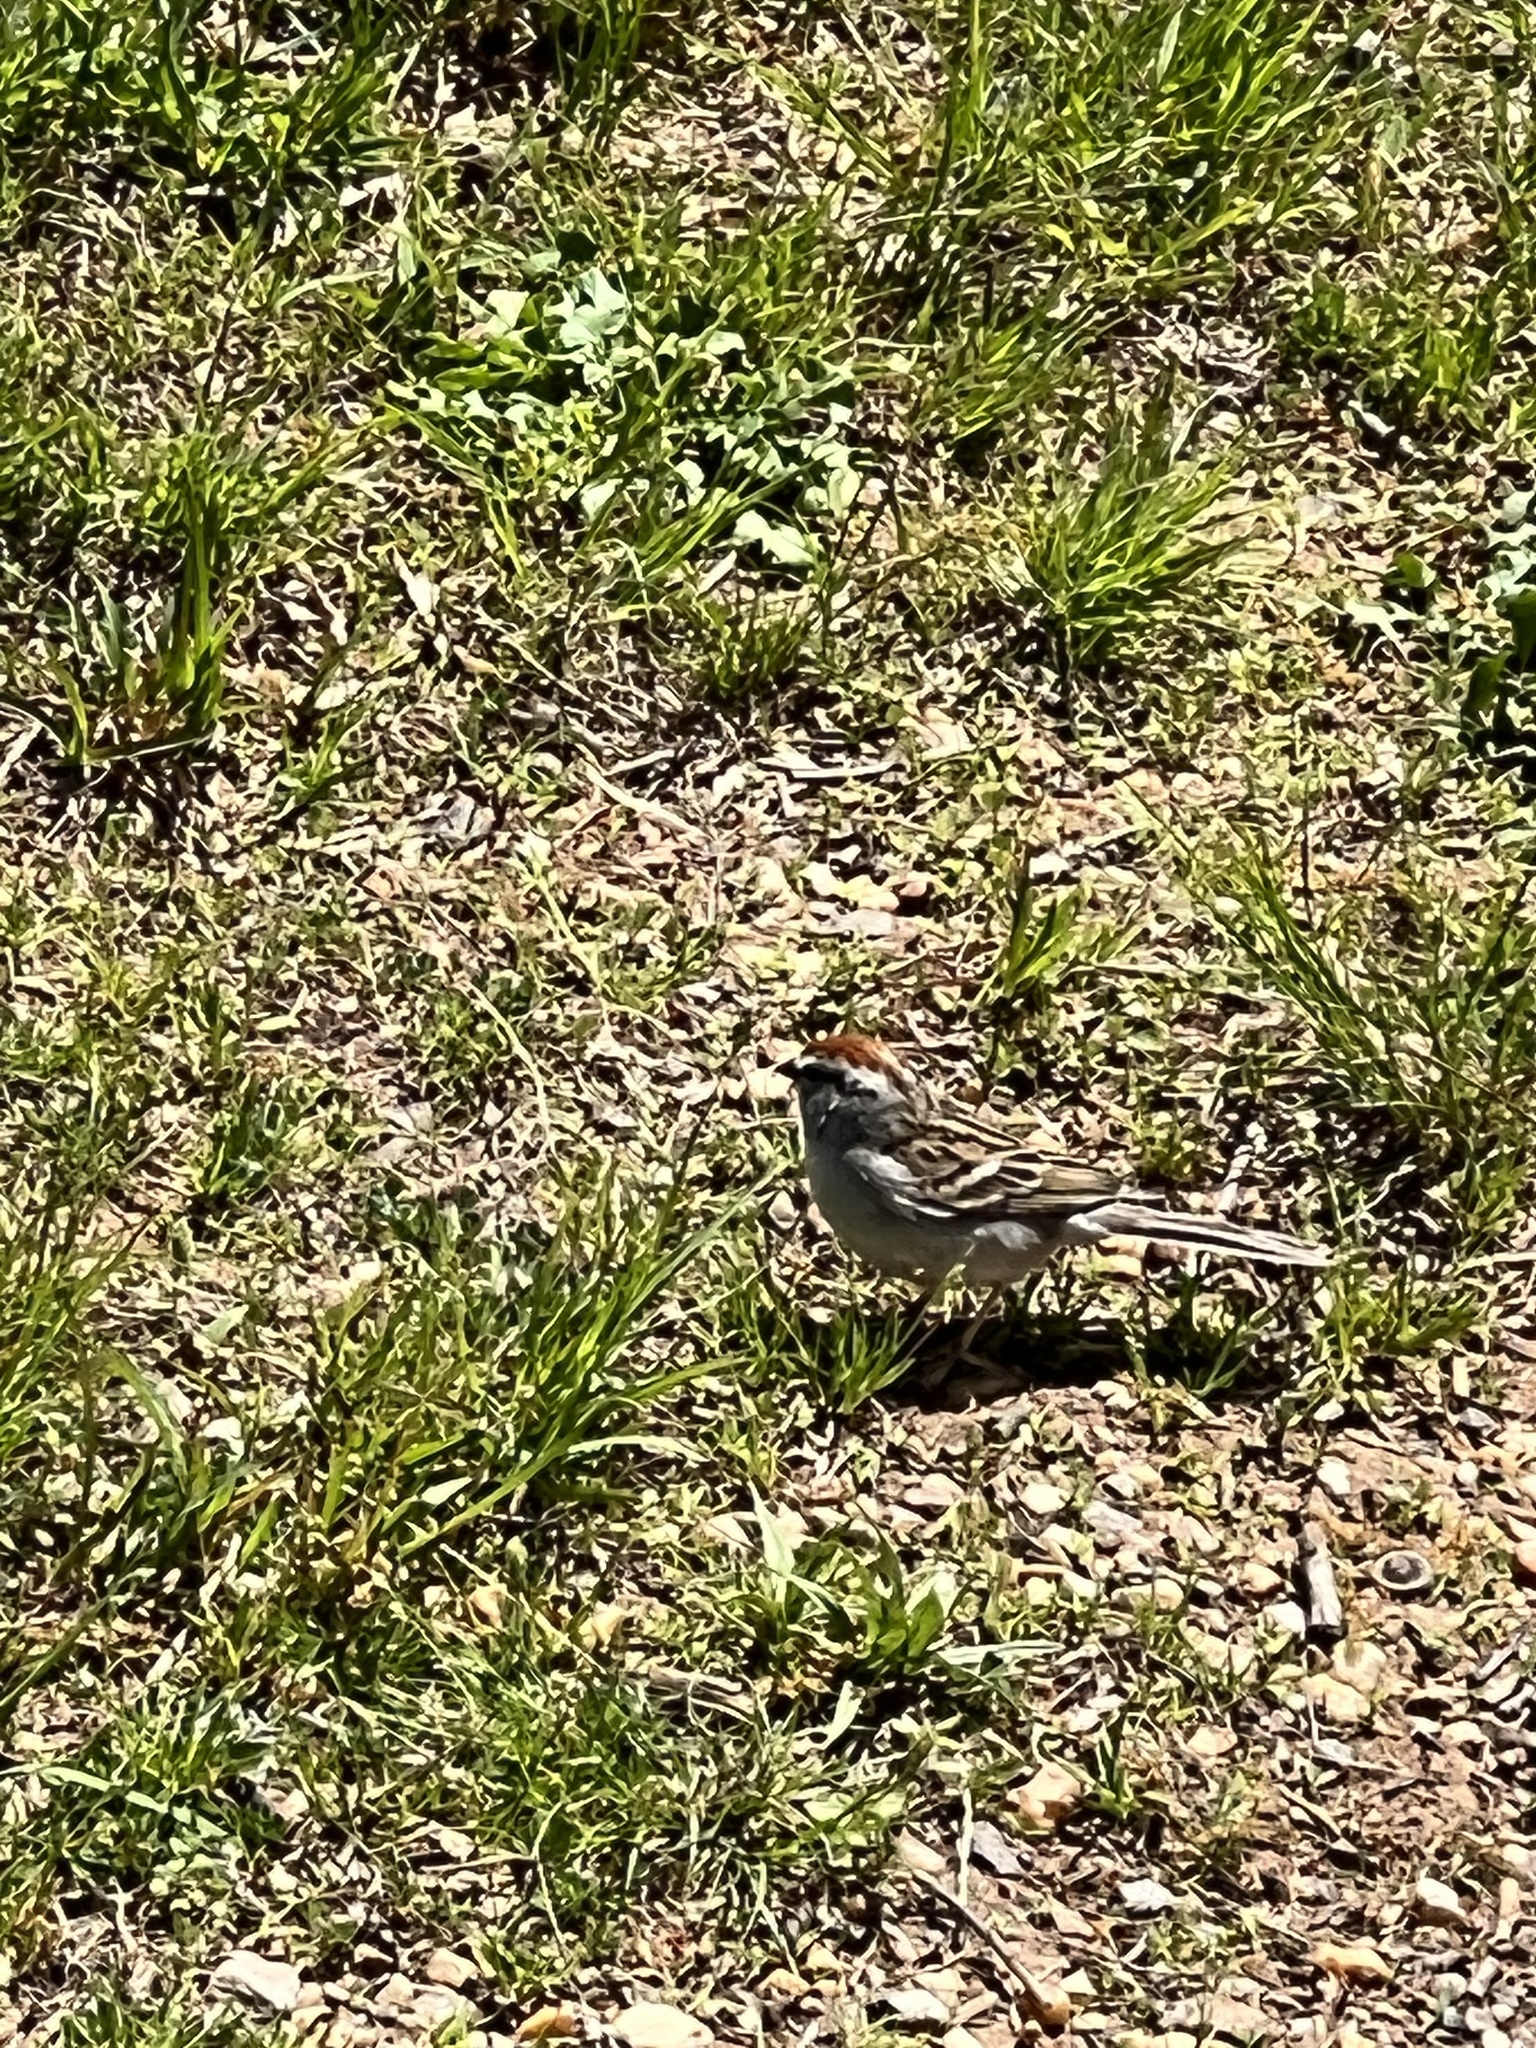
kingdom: Animalia
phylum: Chordata
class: Aves
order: Passeriformes
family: Passerellidae
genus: Spizella
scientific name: Spizella passerina
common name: Chipping sparrow
